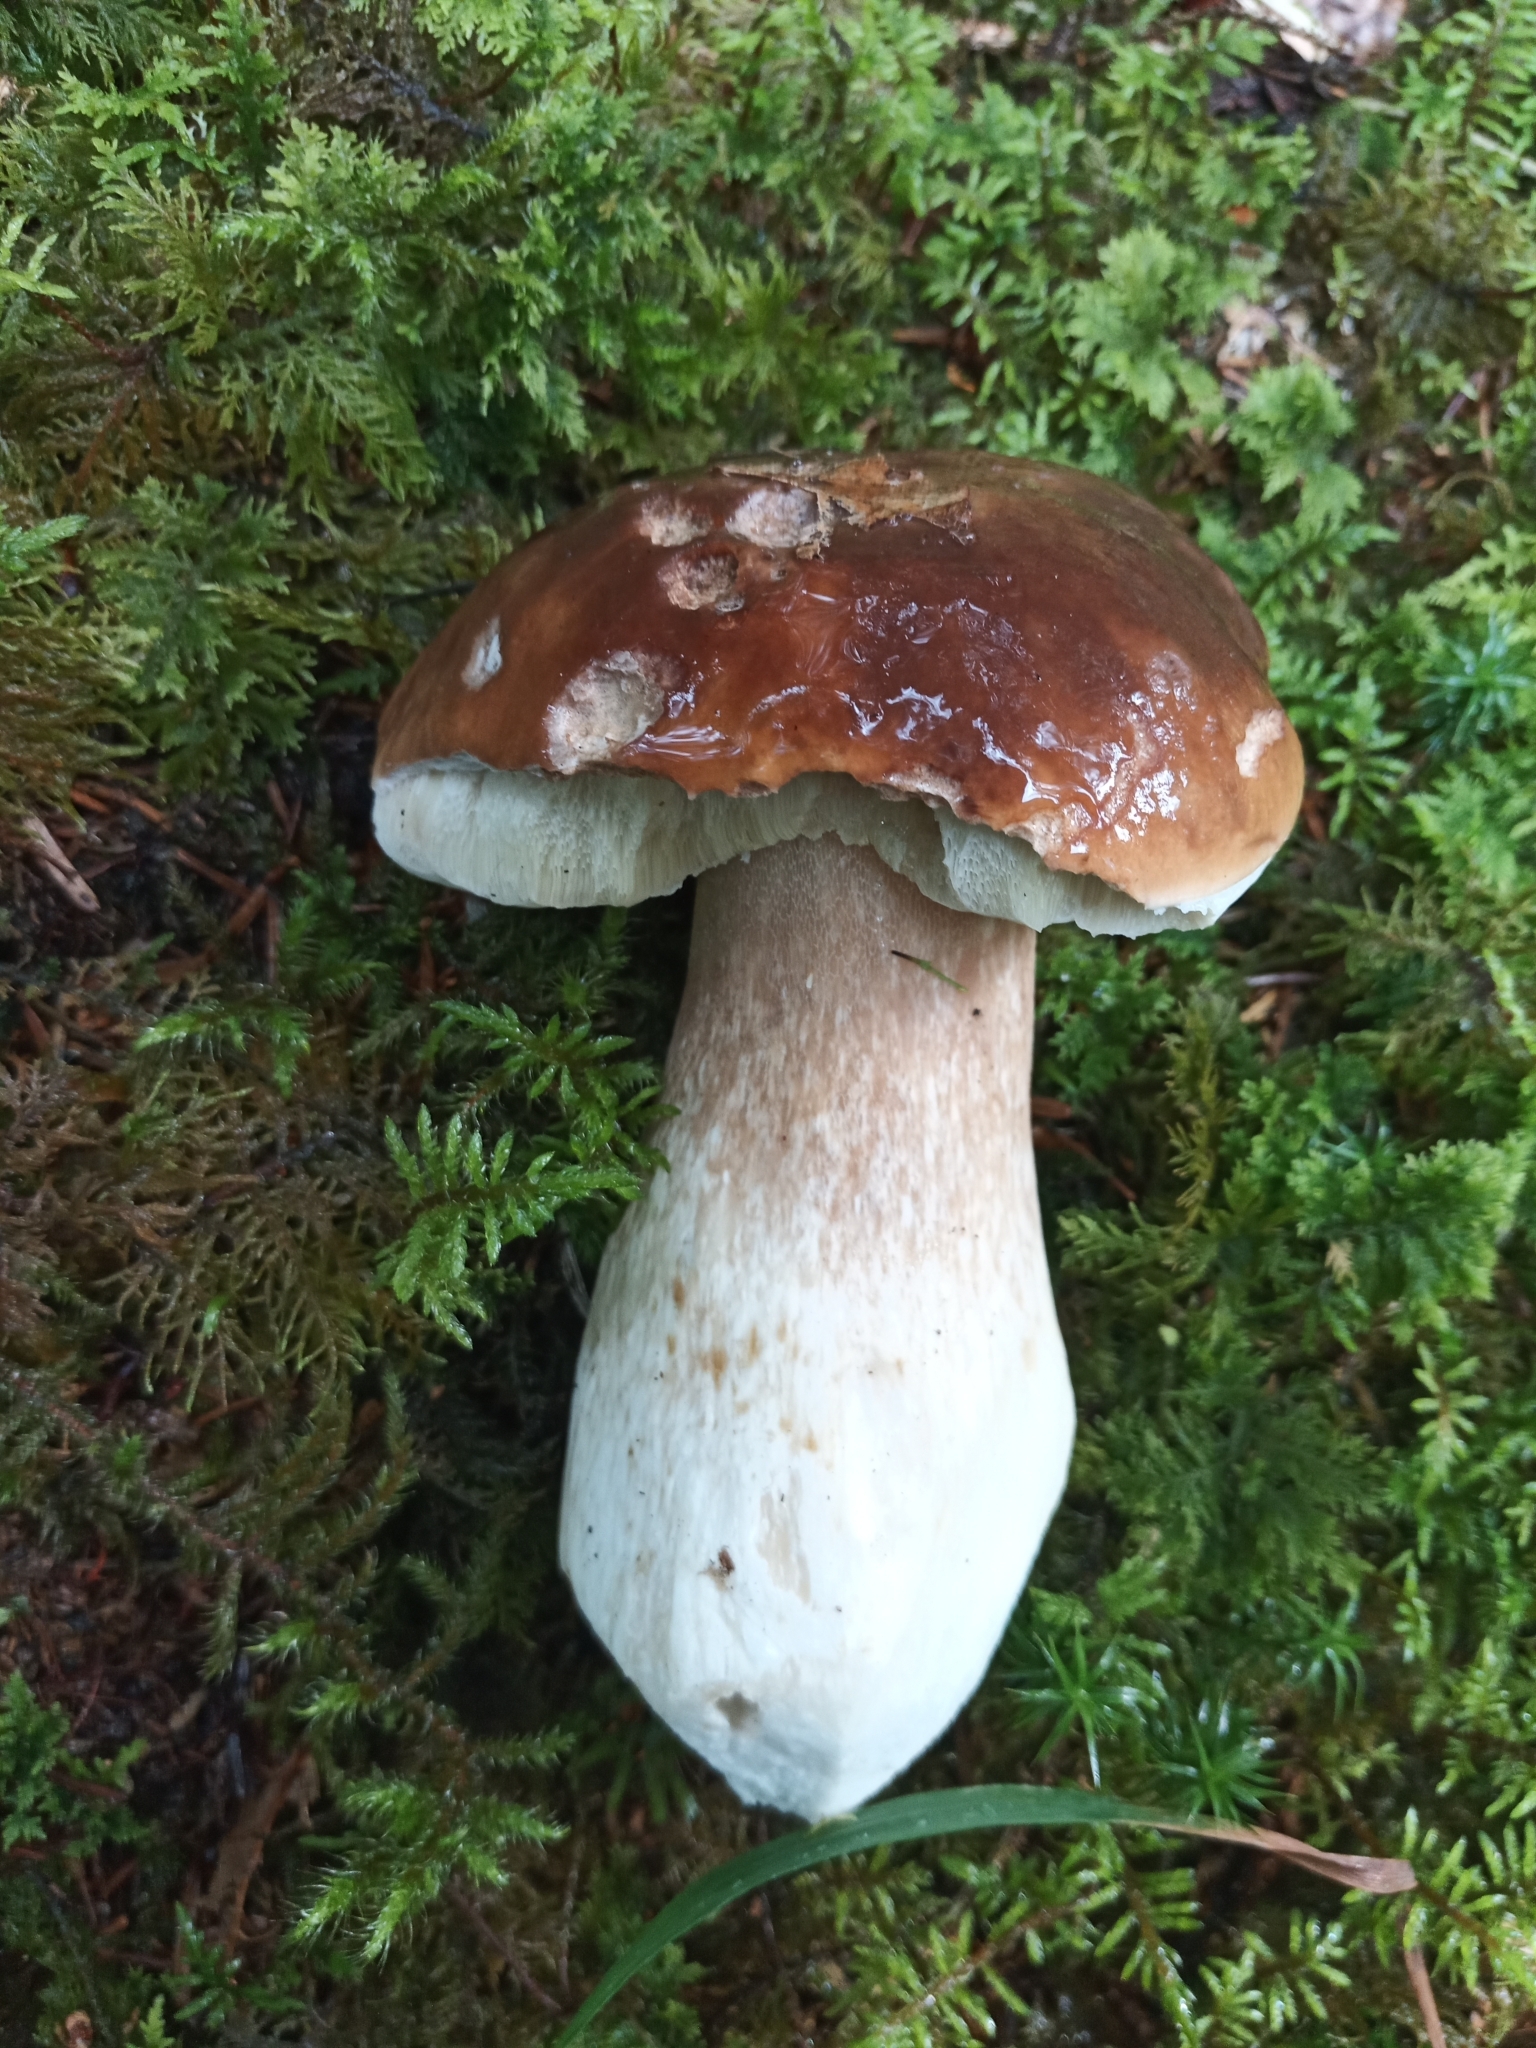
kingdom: Fungi
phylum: Basidiomycota
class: Agaricomycetes
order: Boletales
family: Boletaceae
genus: Boletus
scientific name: Boletus edulis
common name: Cep
